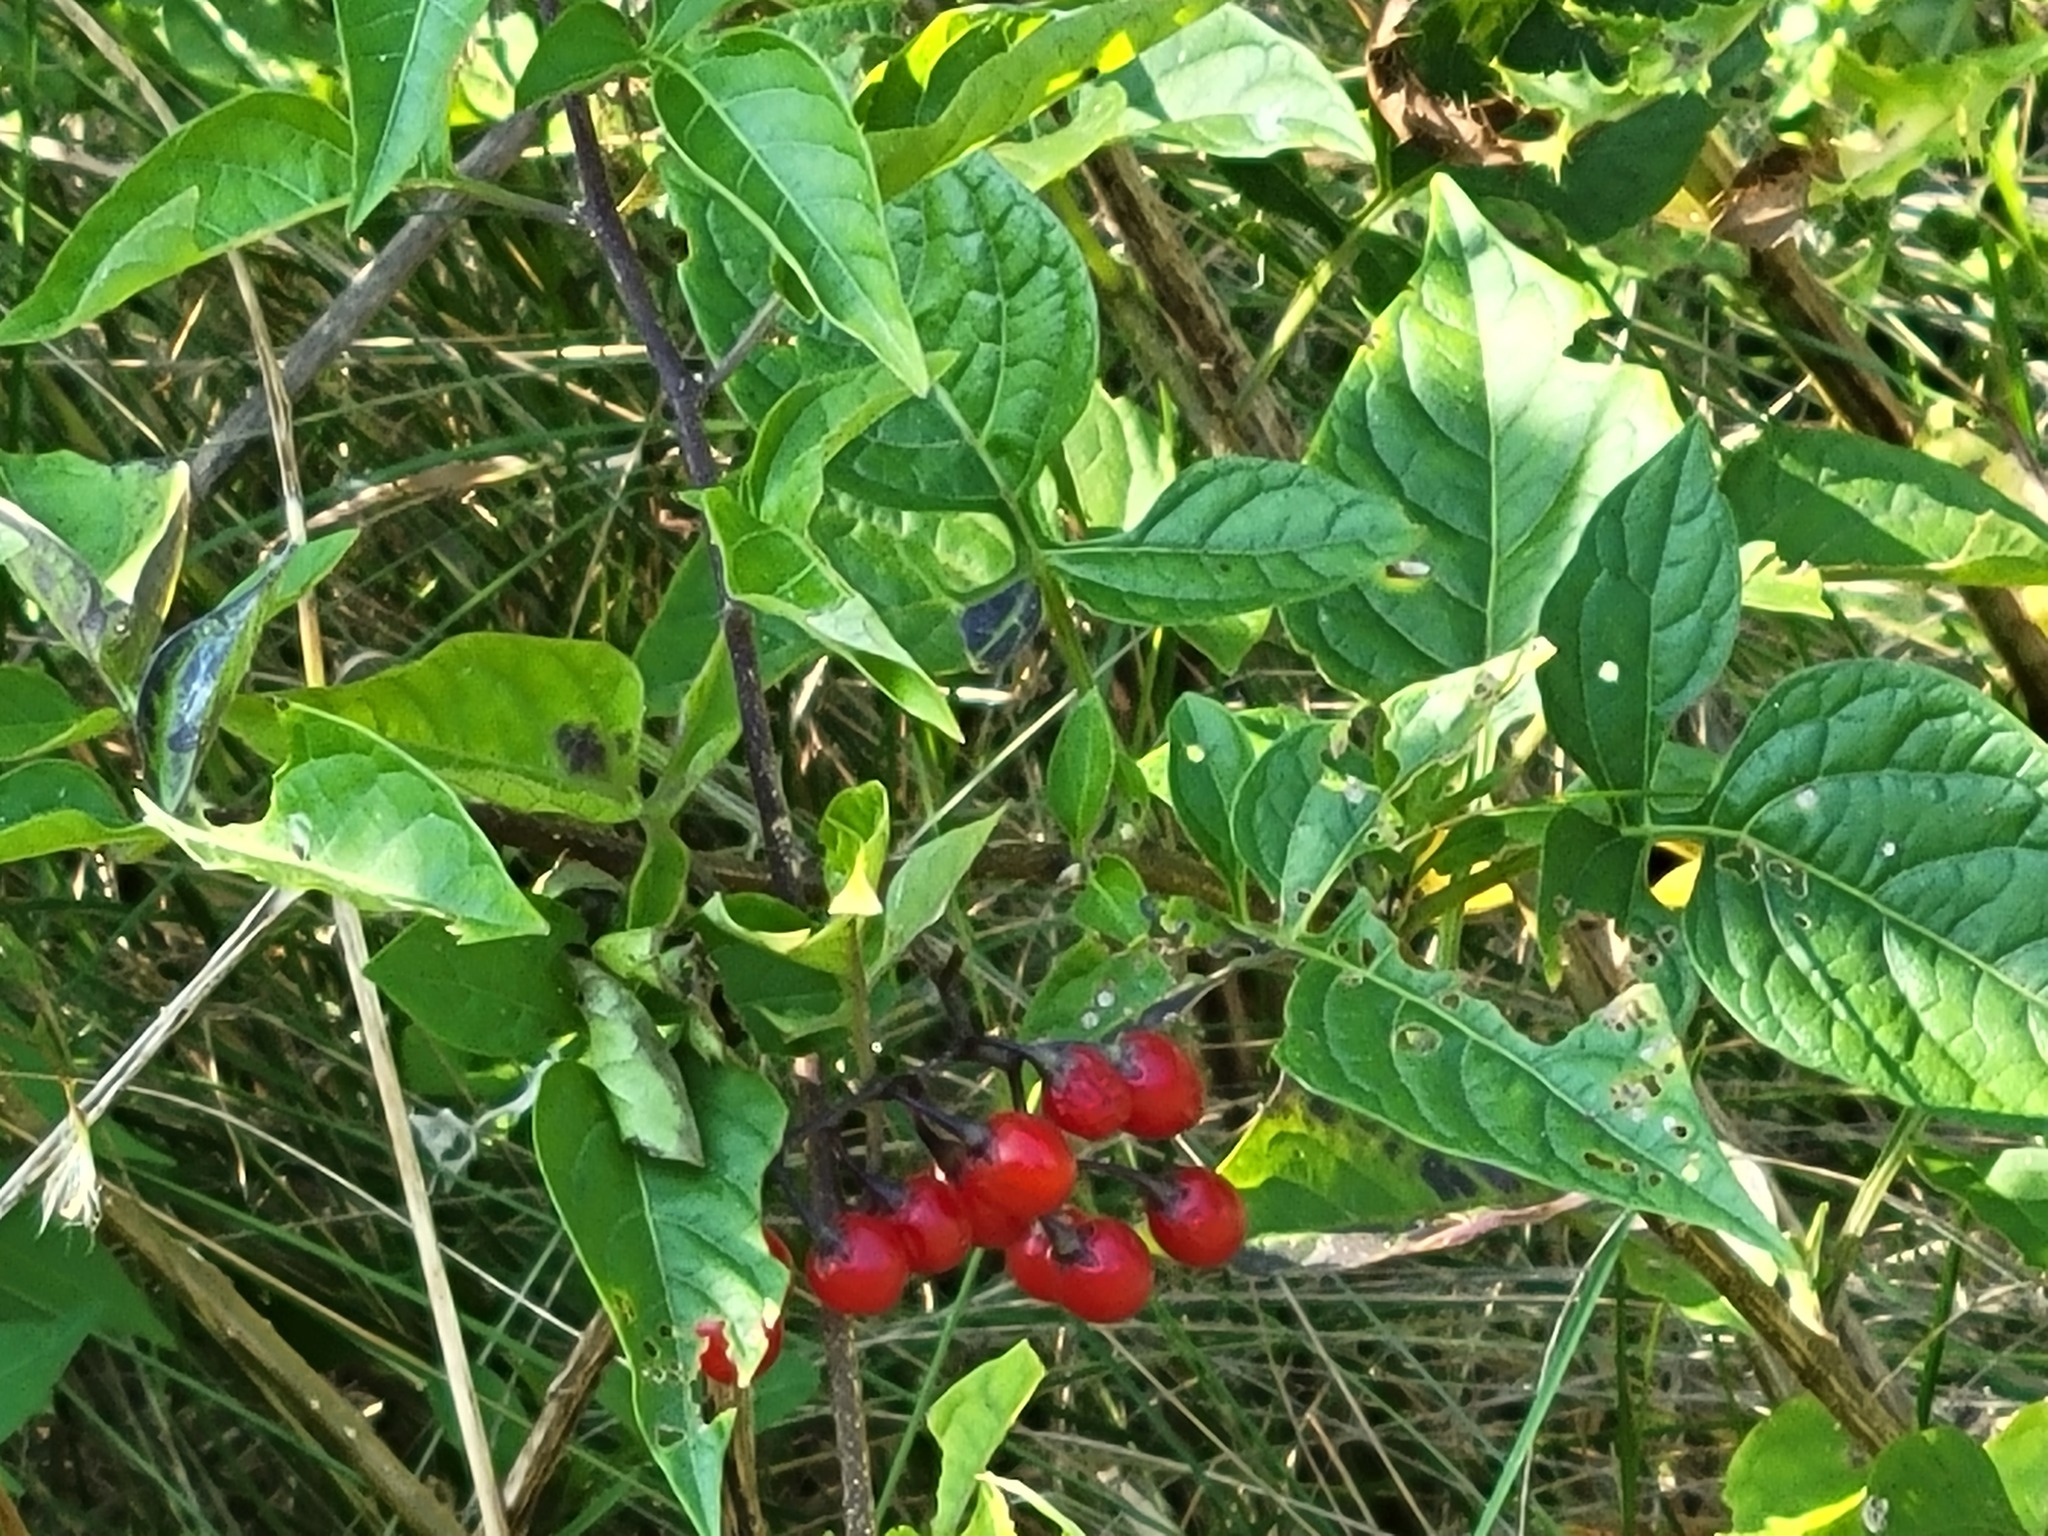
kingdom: Plantae
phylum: Tracheophyta
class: Magnoliopsida
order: Solanales
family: Solanaceae
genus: Solanum
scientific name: Solanum dulcamara
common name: Climbing nightshade
